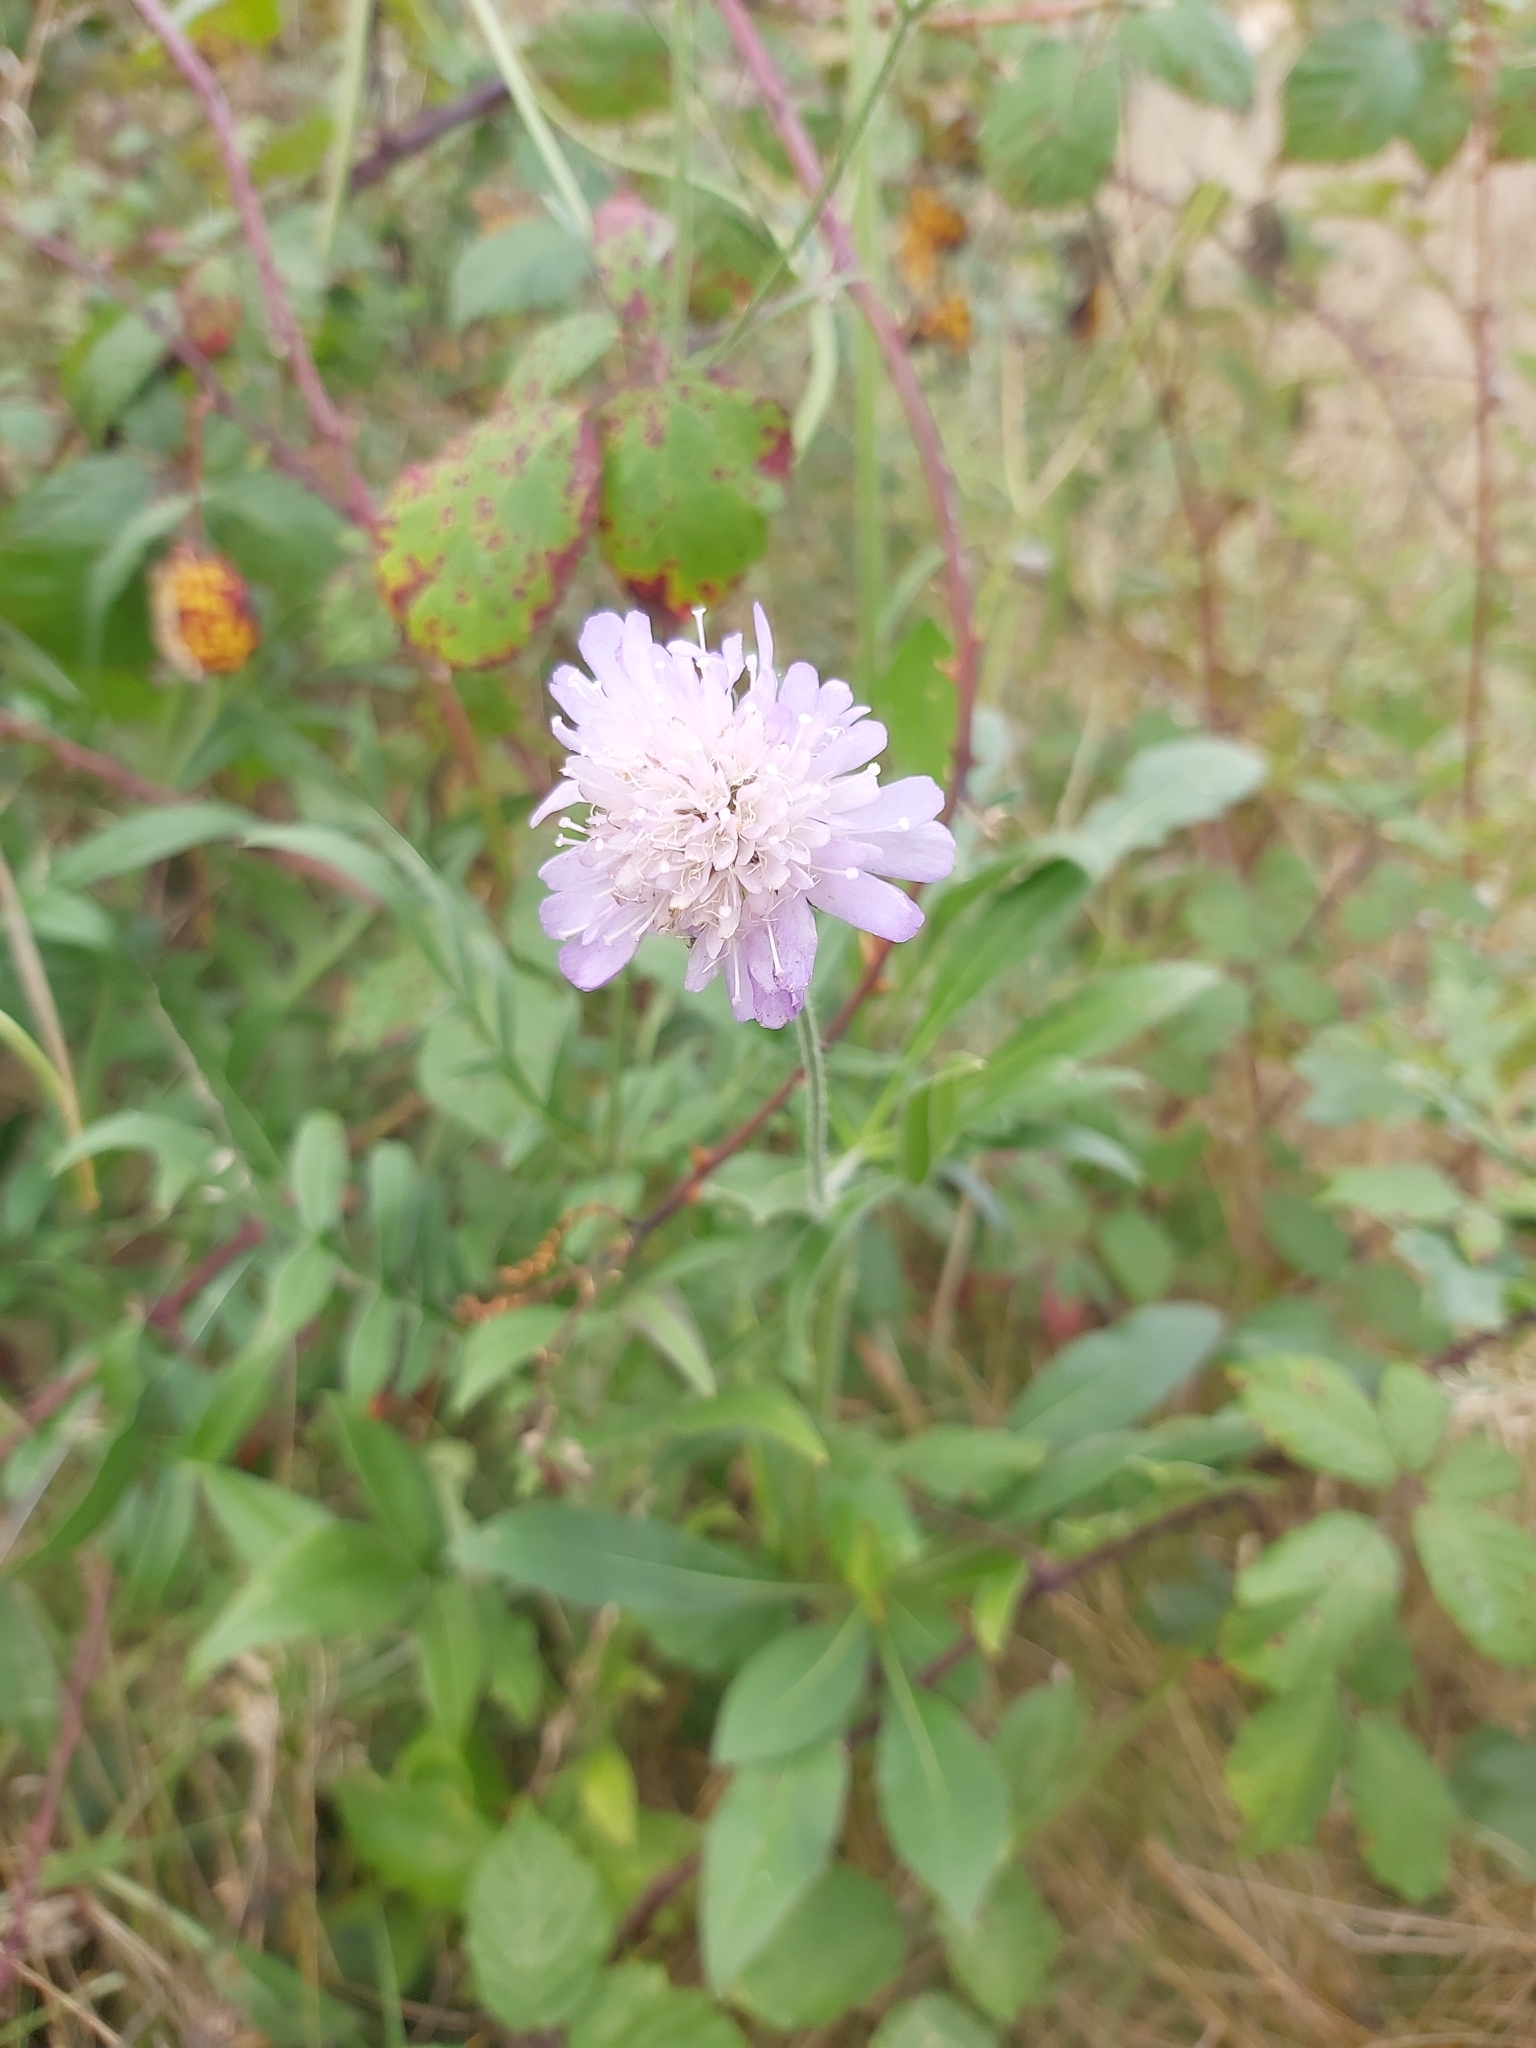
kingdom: Plantae
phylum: Tracheophyta
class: Magnoliopsida
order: Dipsacales
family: Caprifoliaceae
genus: Knautia
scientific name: Knautia arvensis
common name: Field scabiosa
